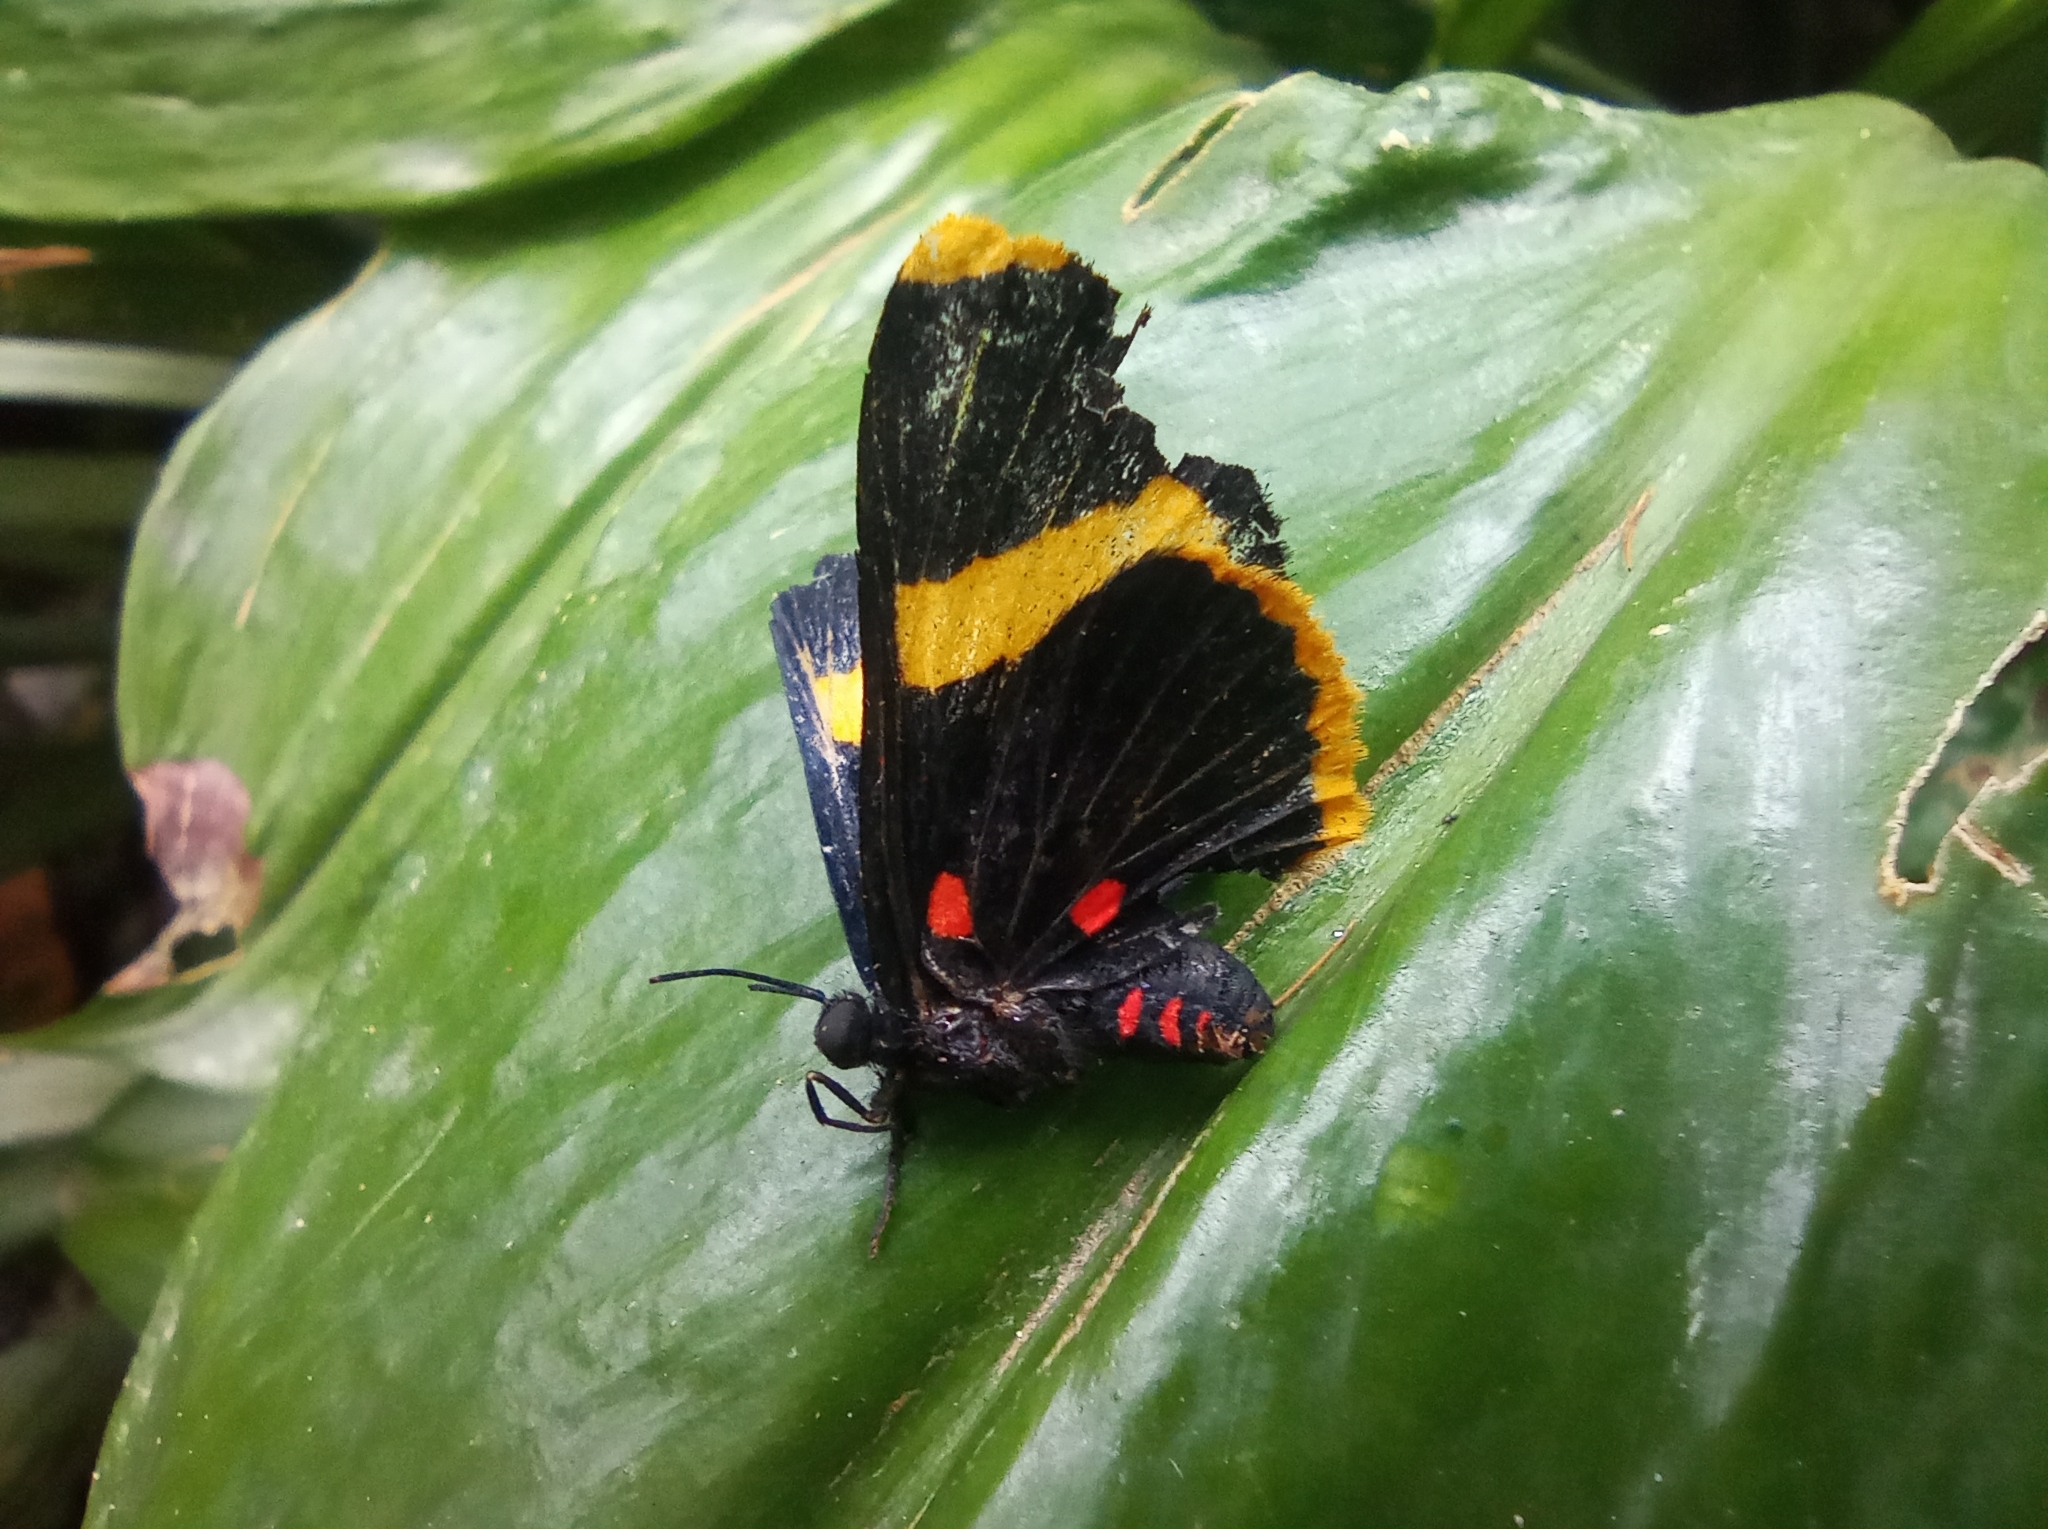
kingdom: Animalia
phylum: Arthropoda
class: Insecta
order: Lepidoptera
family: Lycaenidae
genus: Melanis
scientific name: Melanis electron
